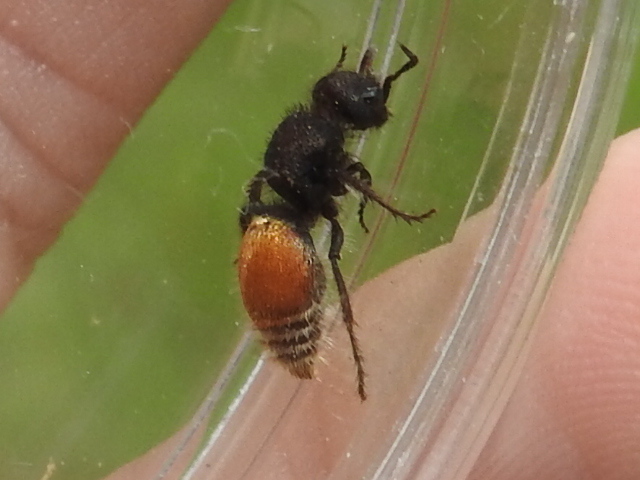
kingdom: Animalia
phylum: Arthropoda
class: Insecta
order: Hymenoptera
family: Mutillidae
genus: Pseudomethoca
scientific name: Pseudomethoca
